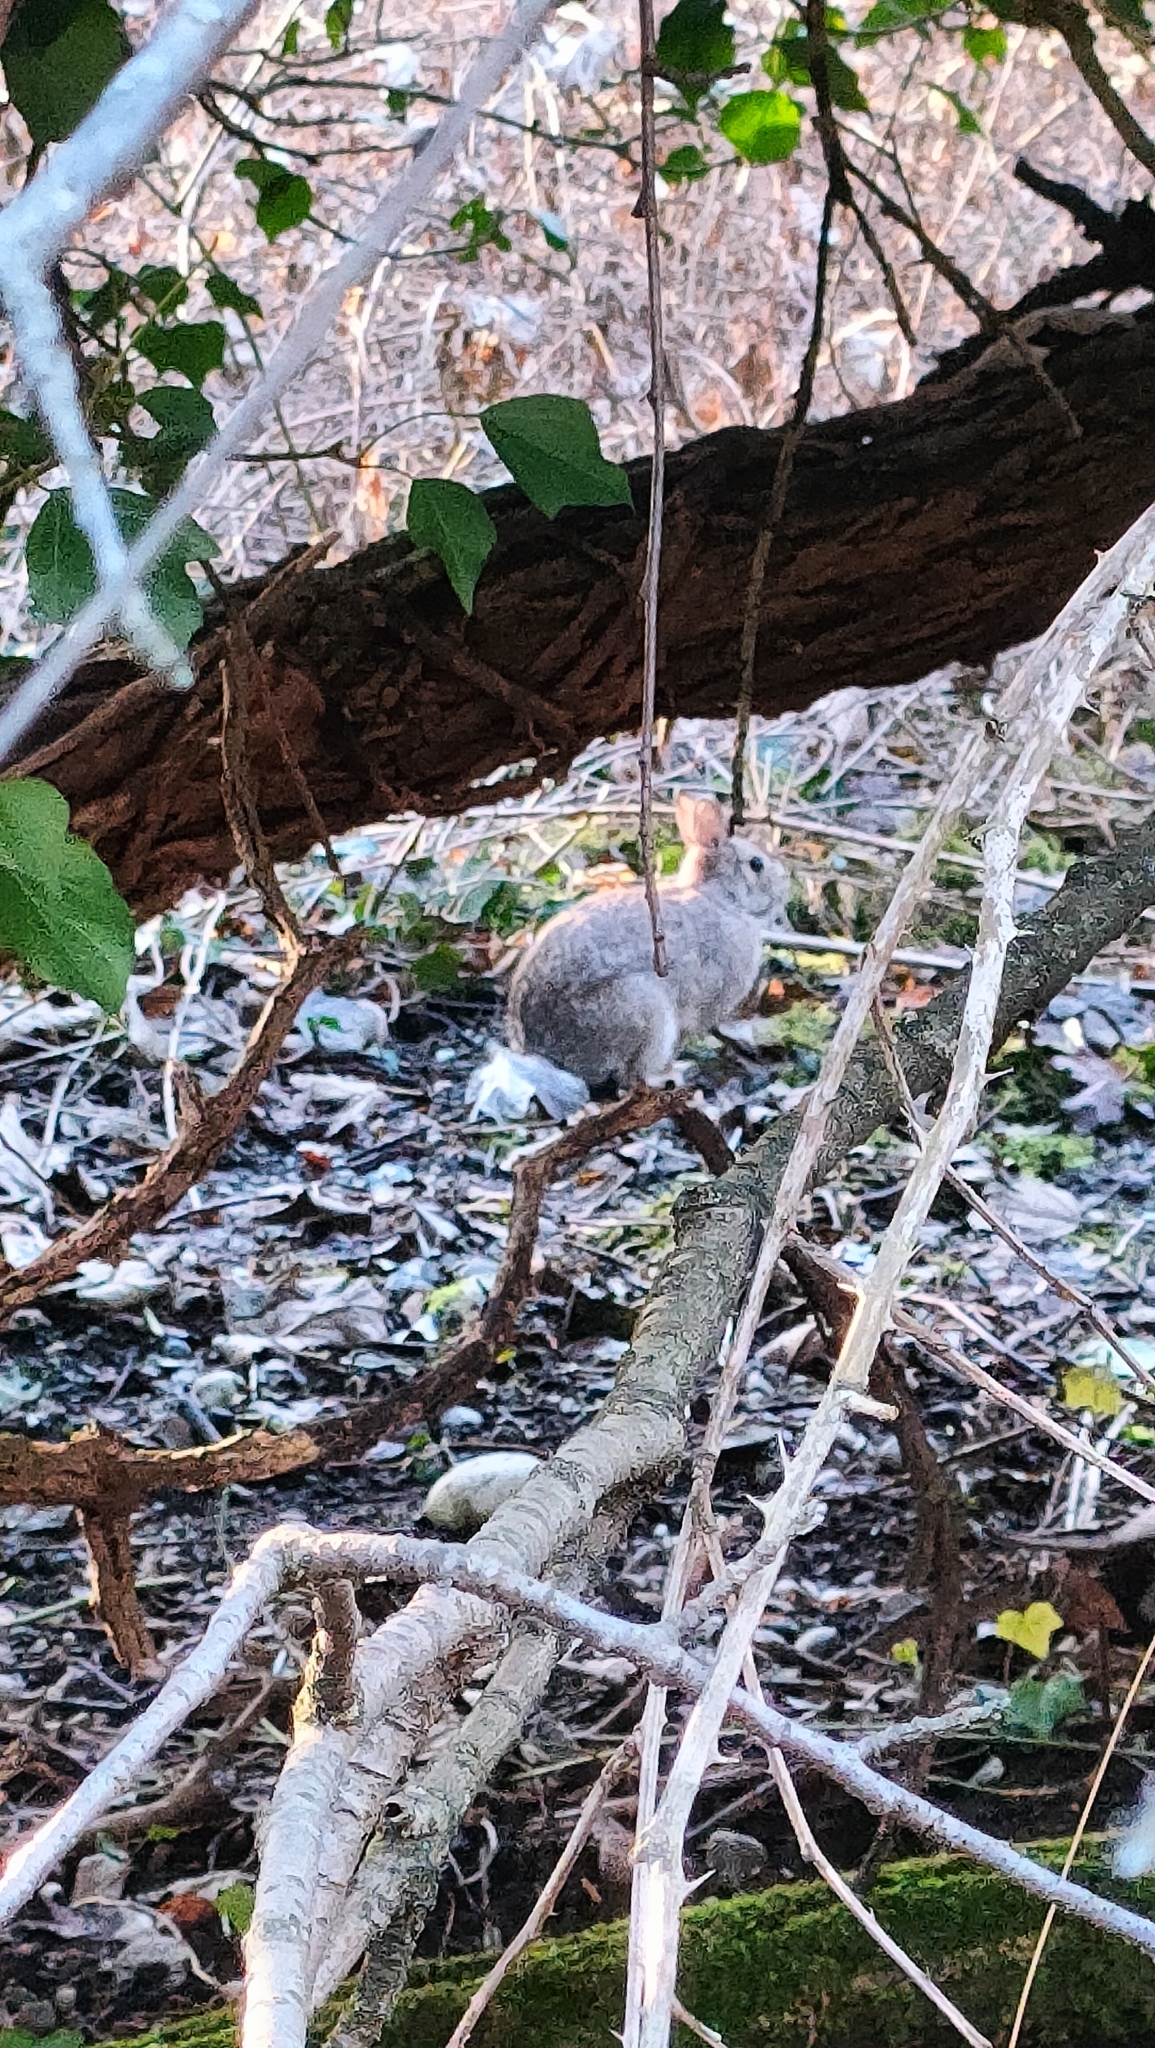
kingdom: Animalia
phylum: Chordata
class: Mammalia
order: Lagomorpha
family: Leporidae
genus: Sylvilagus
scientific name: Sylvilagus floridanus
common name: Eastern cottontail
